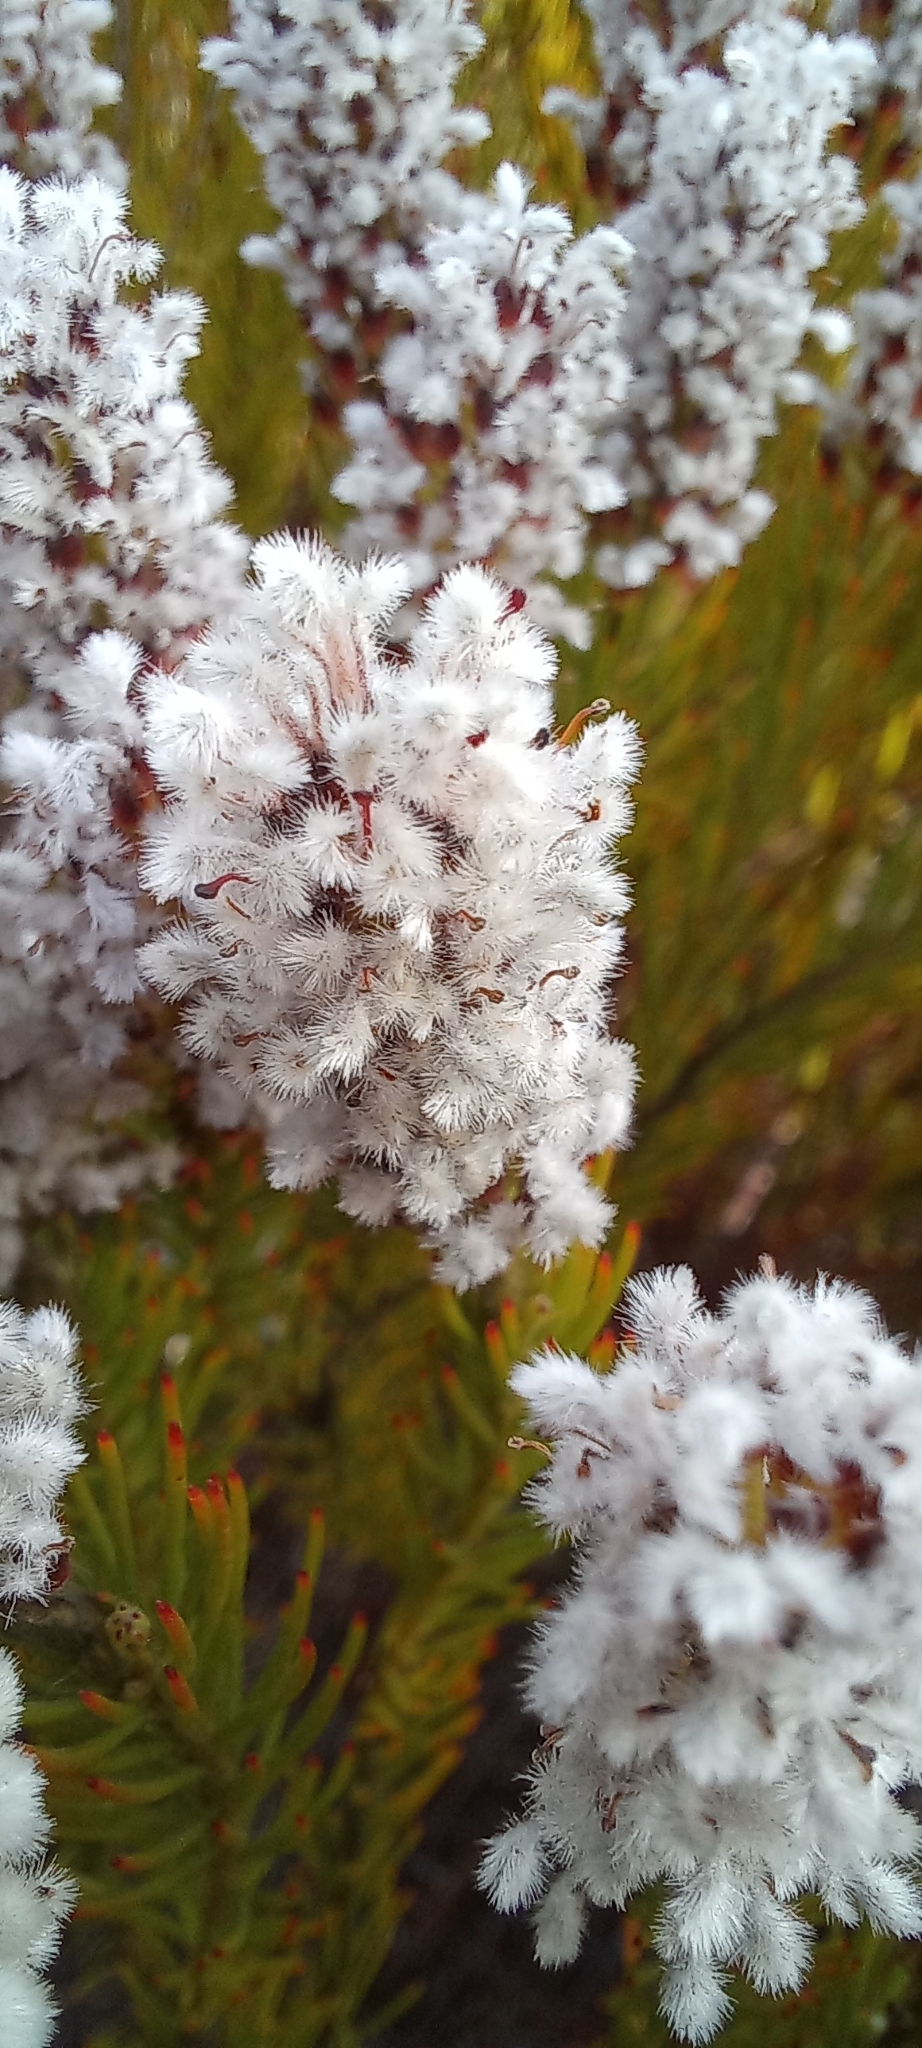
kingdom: Plantae
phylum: Tracheophyta
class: Magnoliopsida
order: Proteales
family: Proteaceae
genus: Spatalla
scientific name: Spatalla mollis
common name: Woolly spoon
